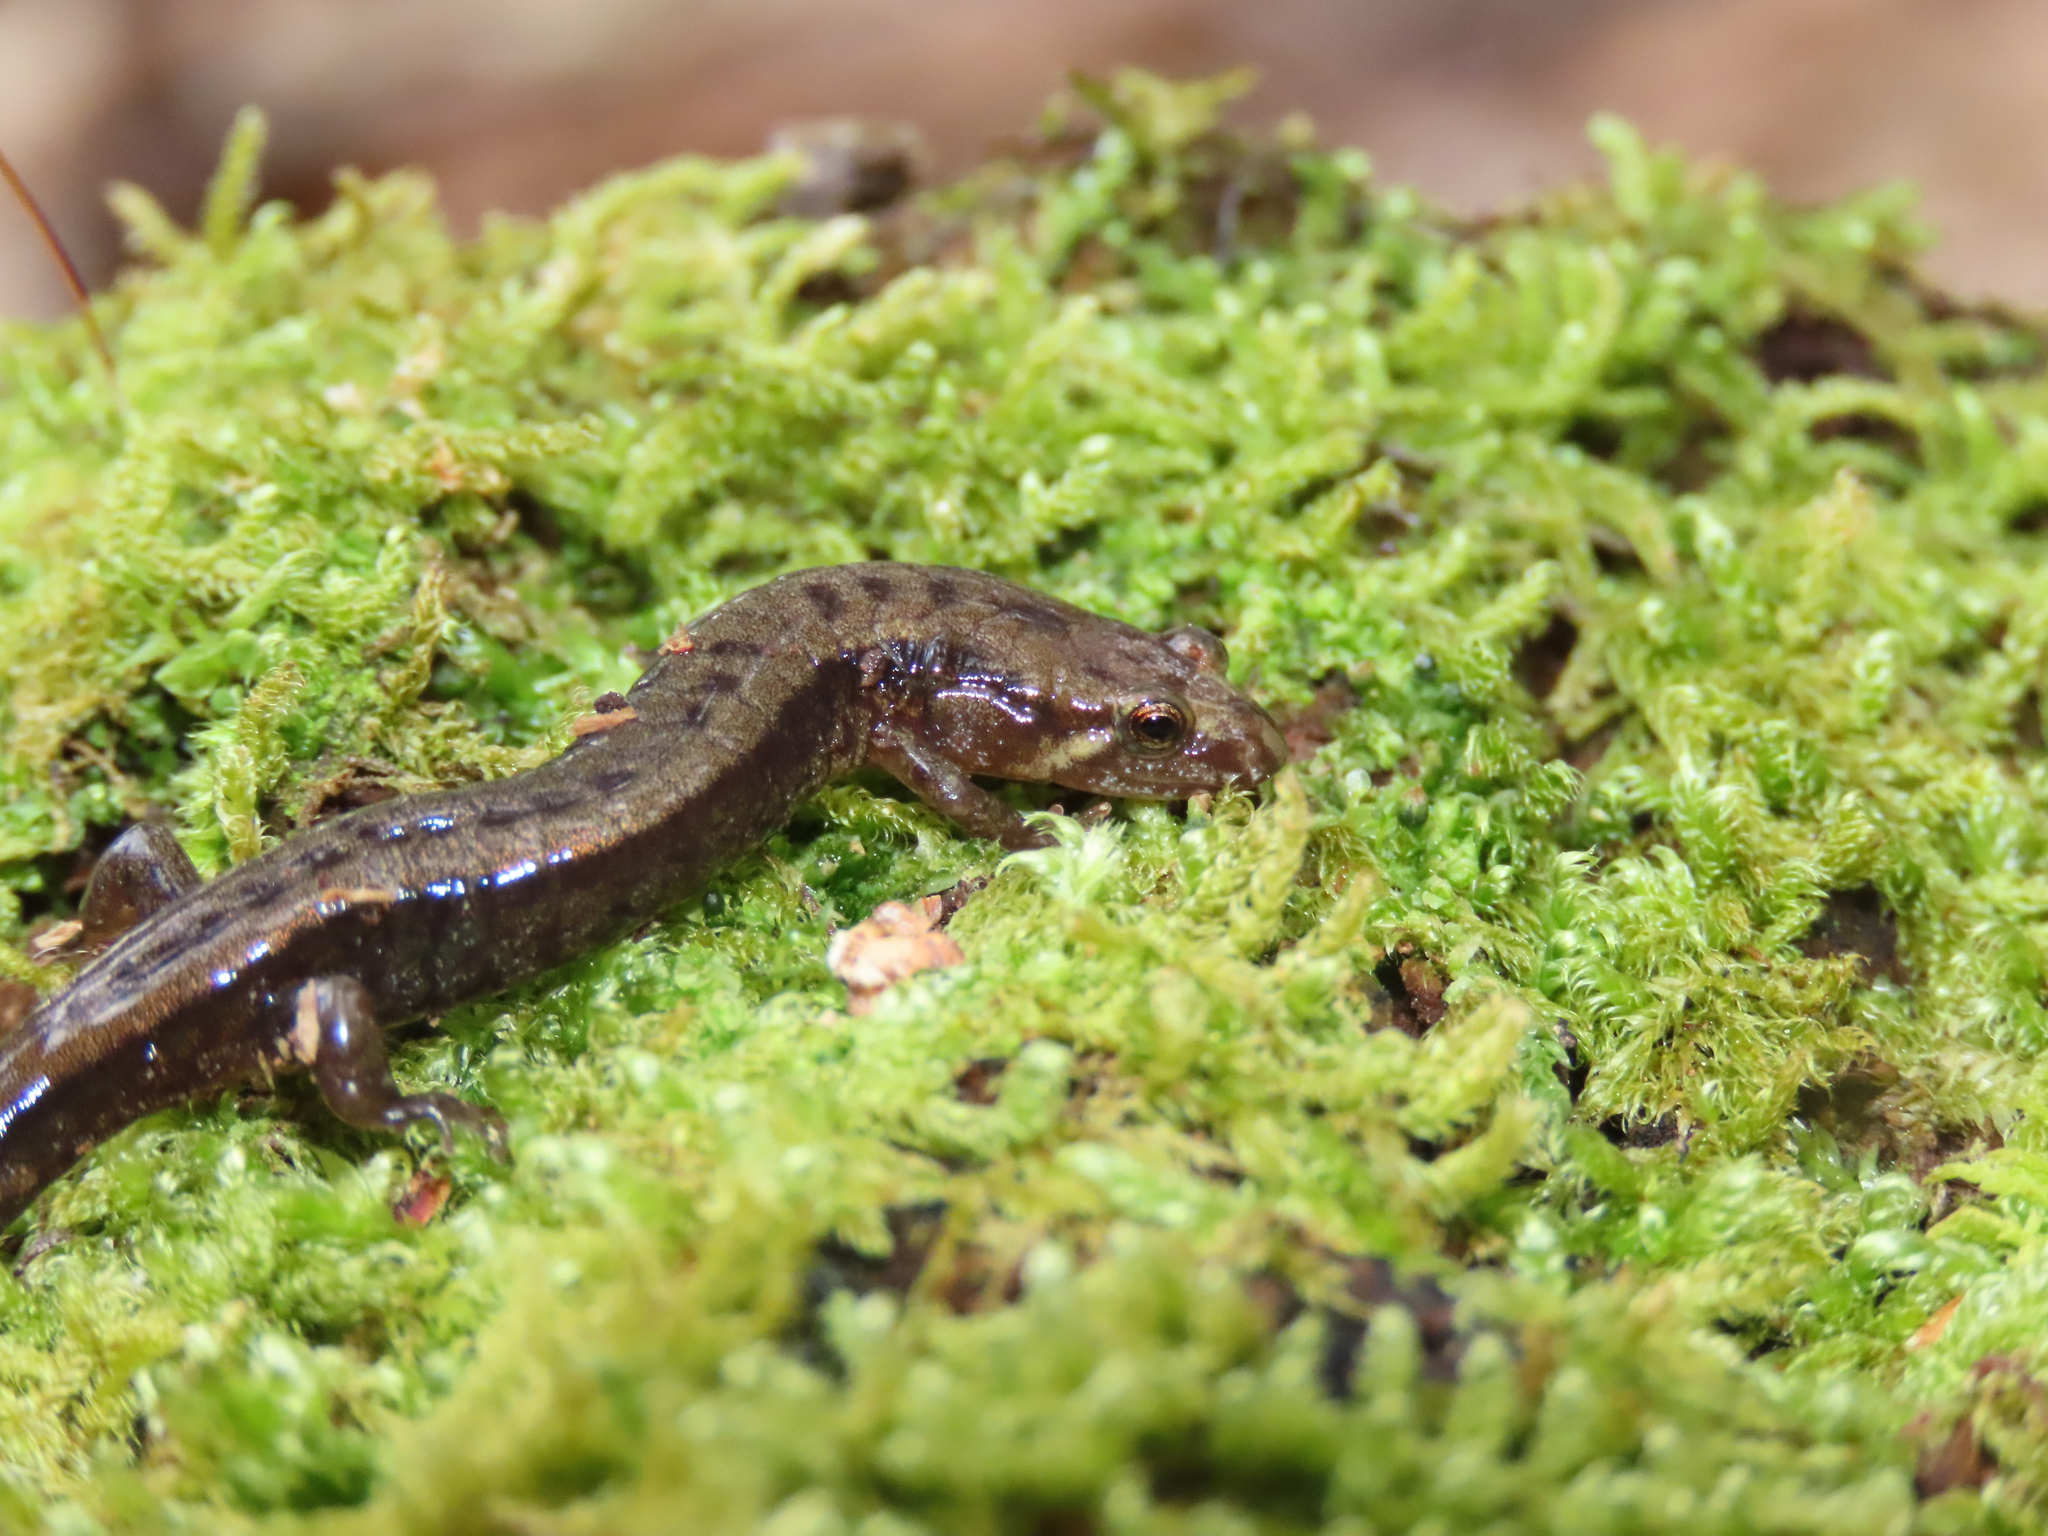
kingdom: Animalia
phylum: Chordata
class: Amphibia
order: Caudata
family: Plethodontidae
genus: Desmognathus
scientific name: Desmognathus ochrophaeus
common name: Allegheny mountain dusky salamander
